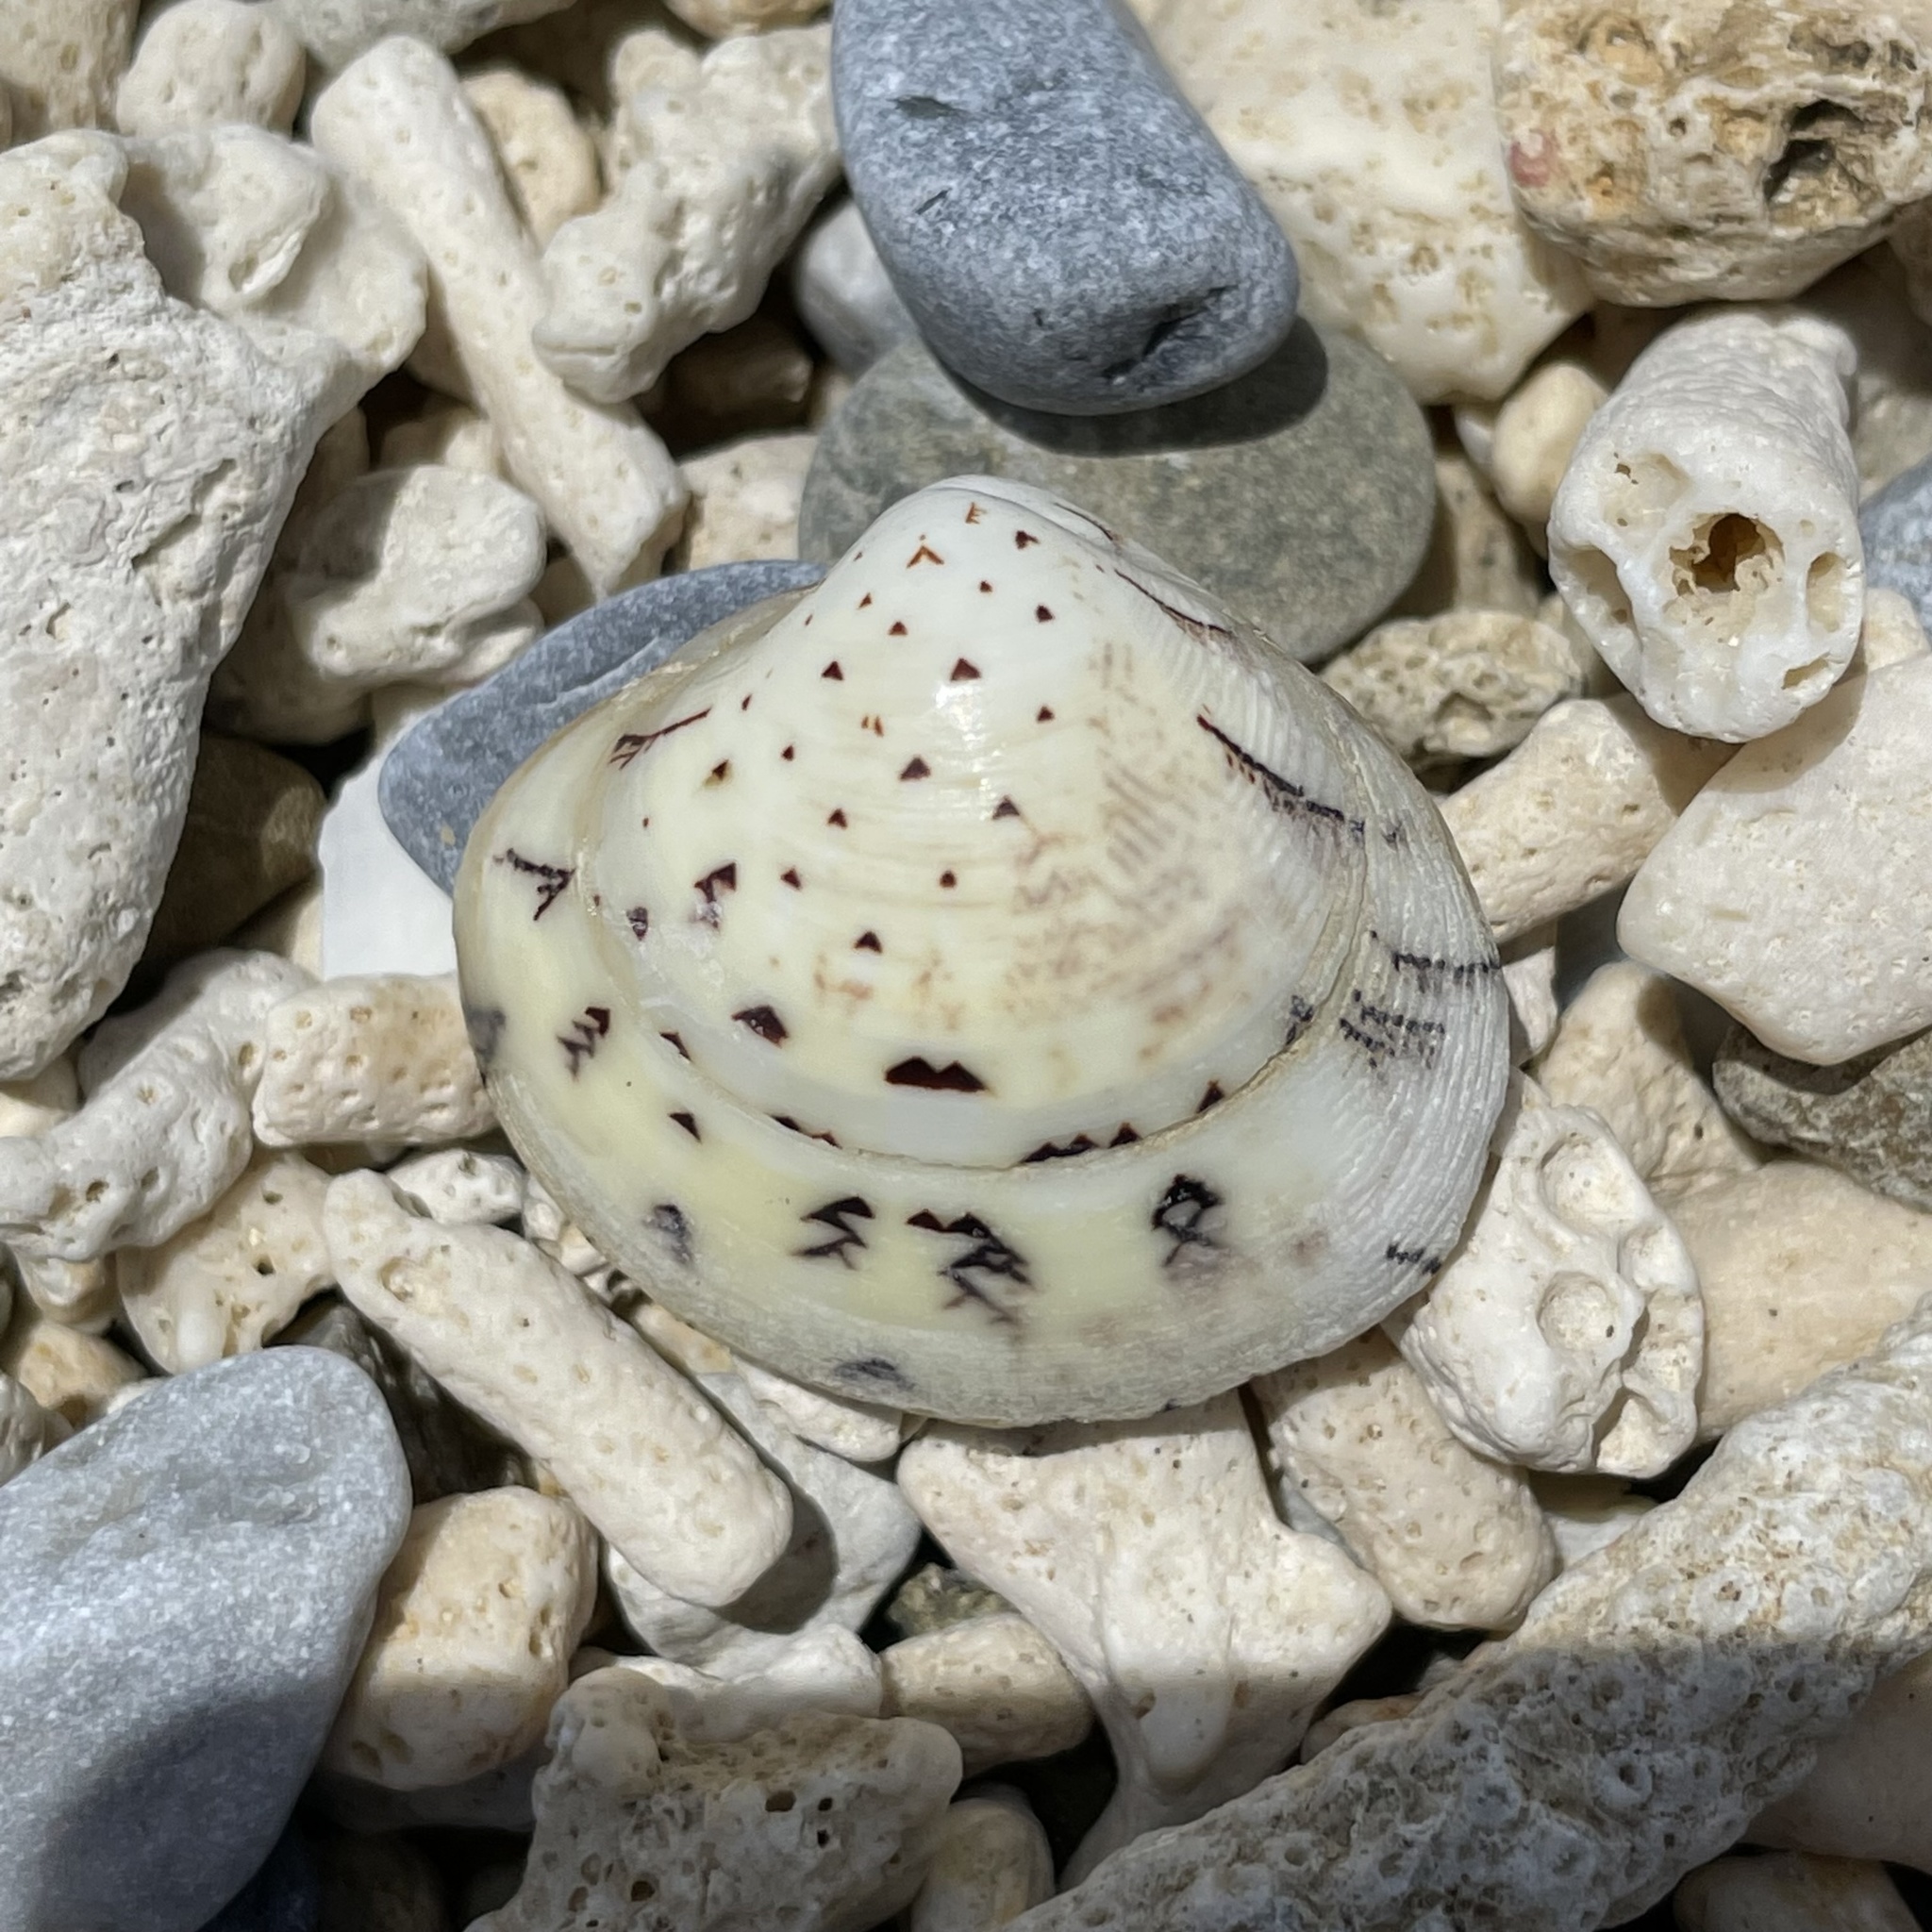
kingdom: Animalia
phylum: Mollusca
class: Bivalvia
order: Venerida
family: Veneridae
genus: Lioconcha
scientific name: Lioconcha castrensis
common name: Camp pitar-venus
